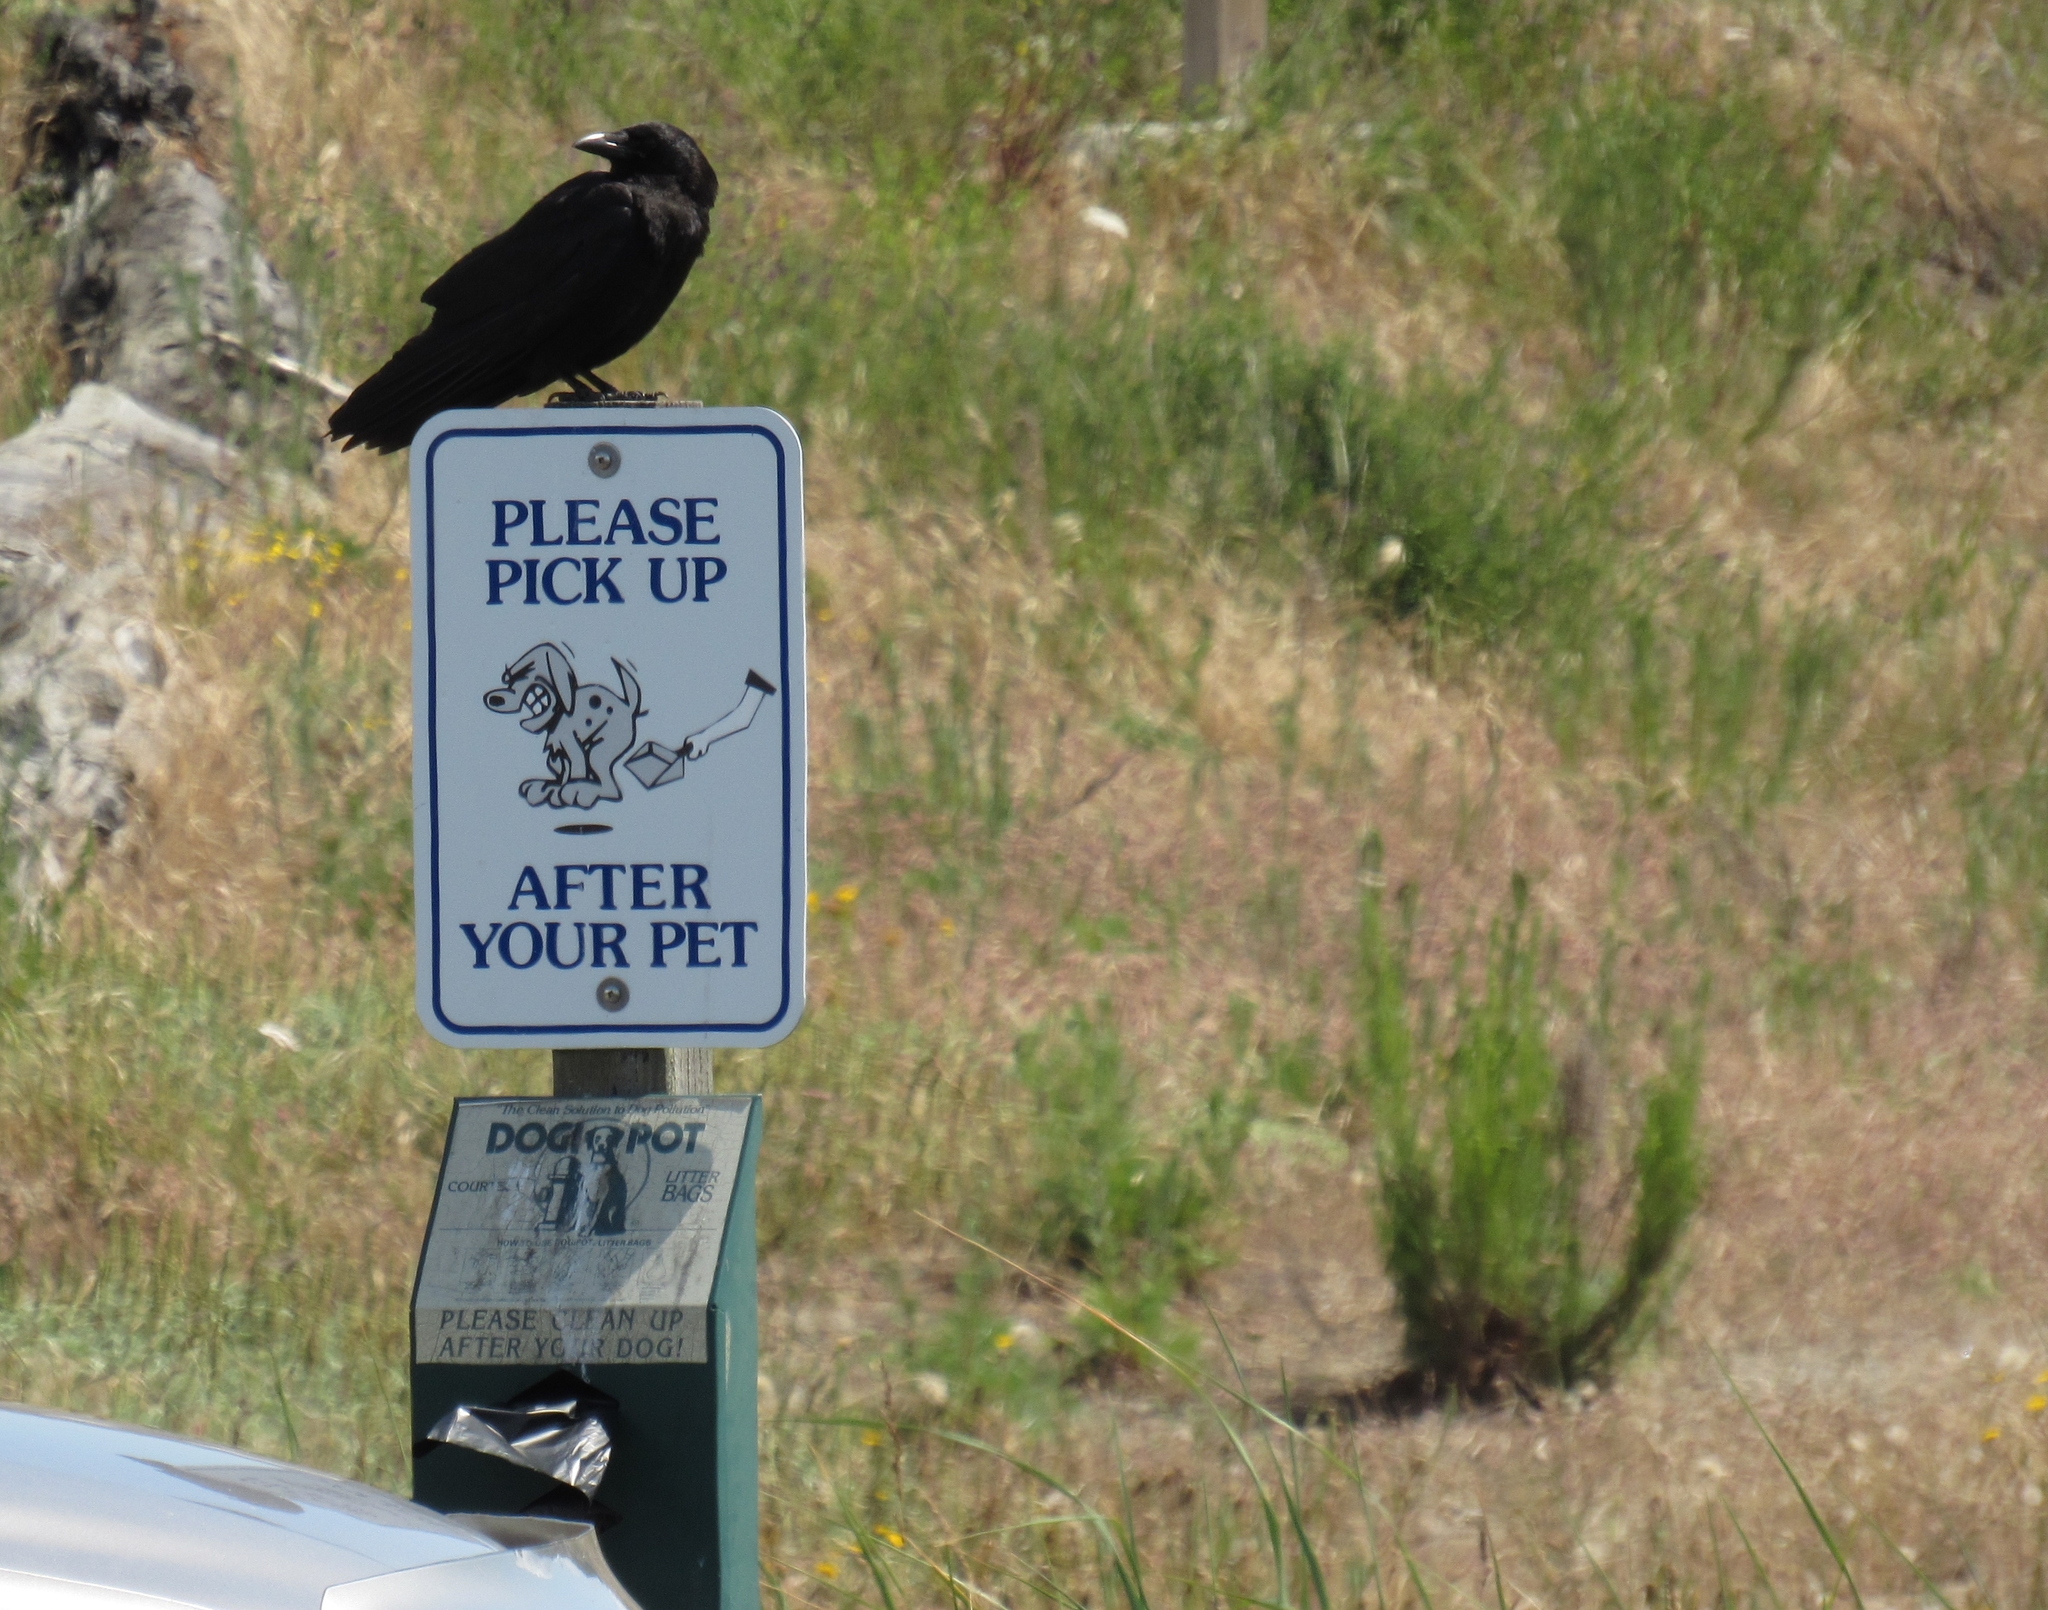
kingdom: Animalia
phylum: Chordata
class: Aves
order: Passeriformes
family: Corvidae
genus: Corvus
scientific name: Corvus brachyrhynchos
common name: American crow
